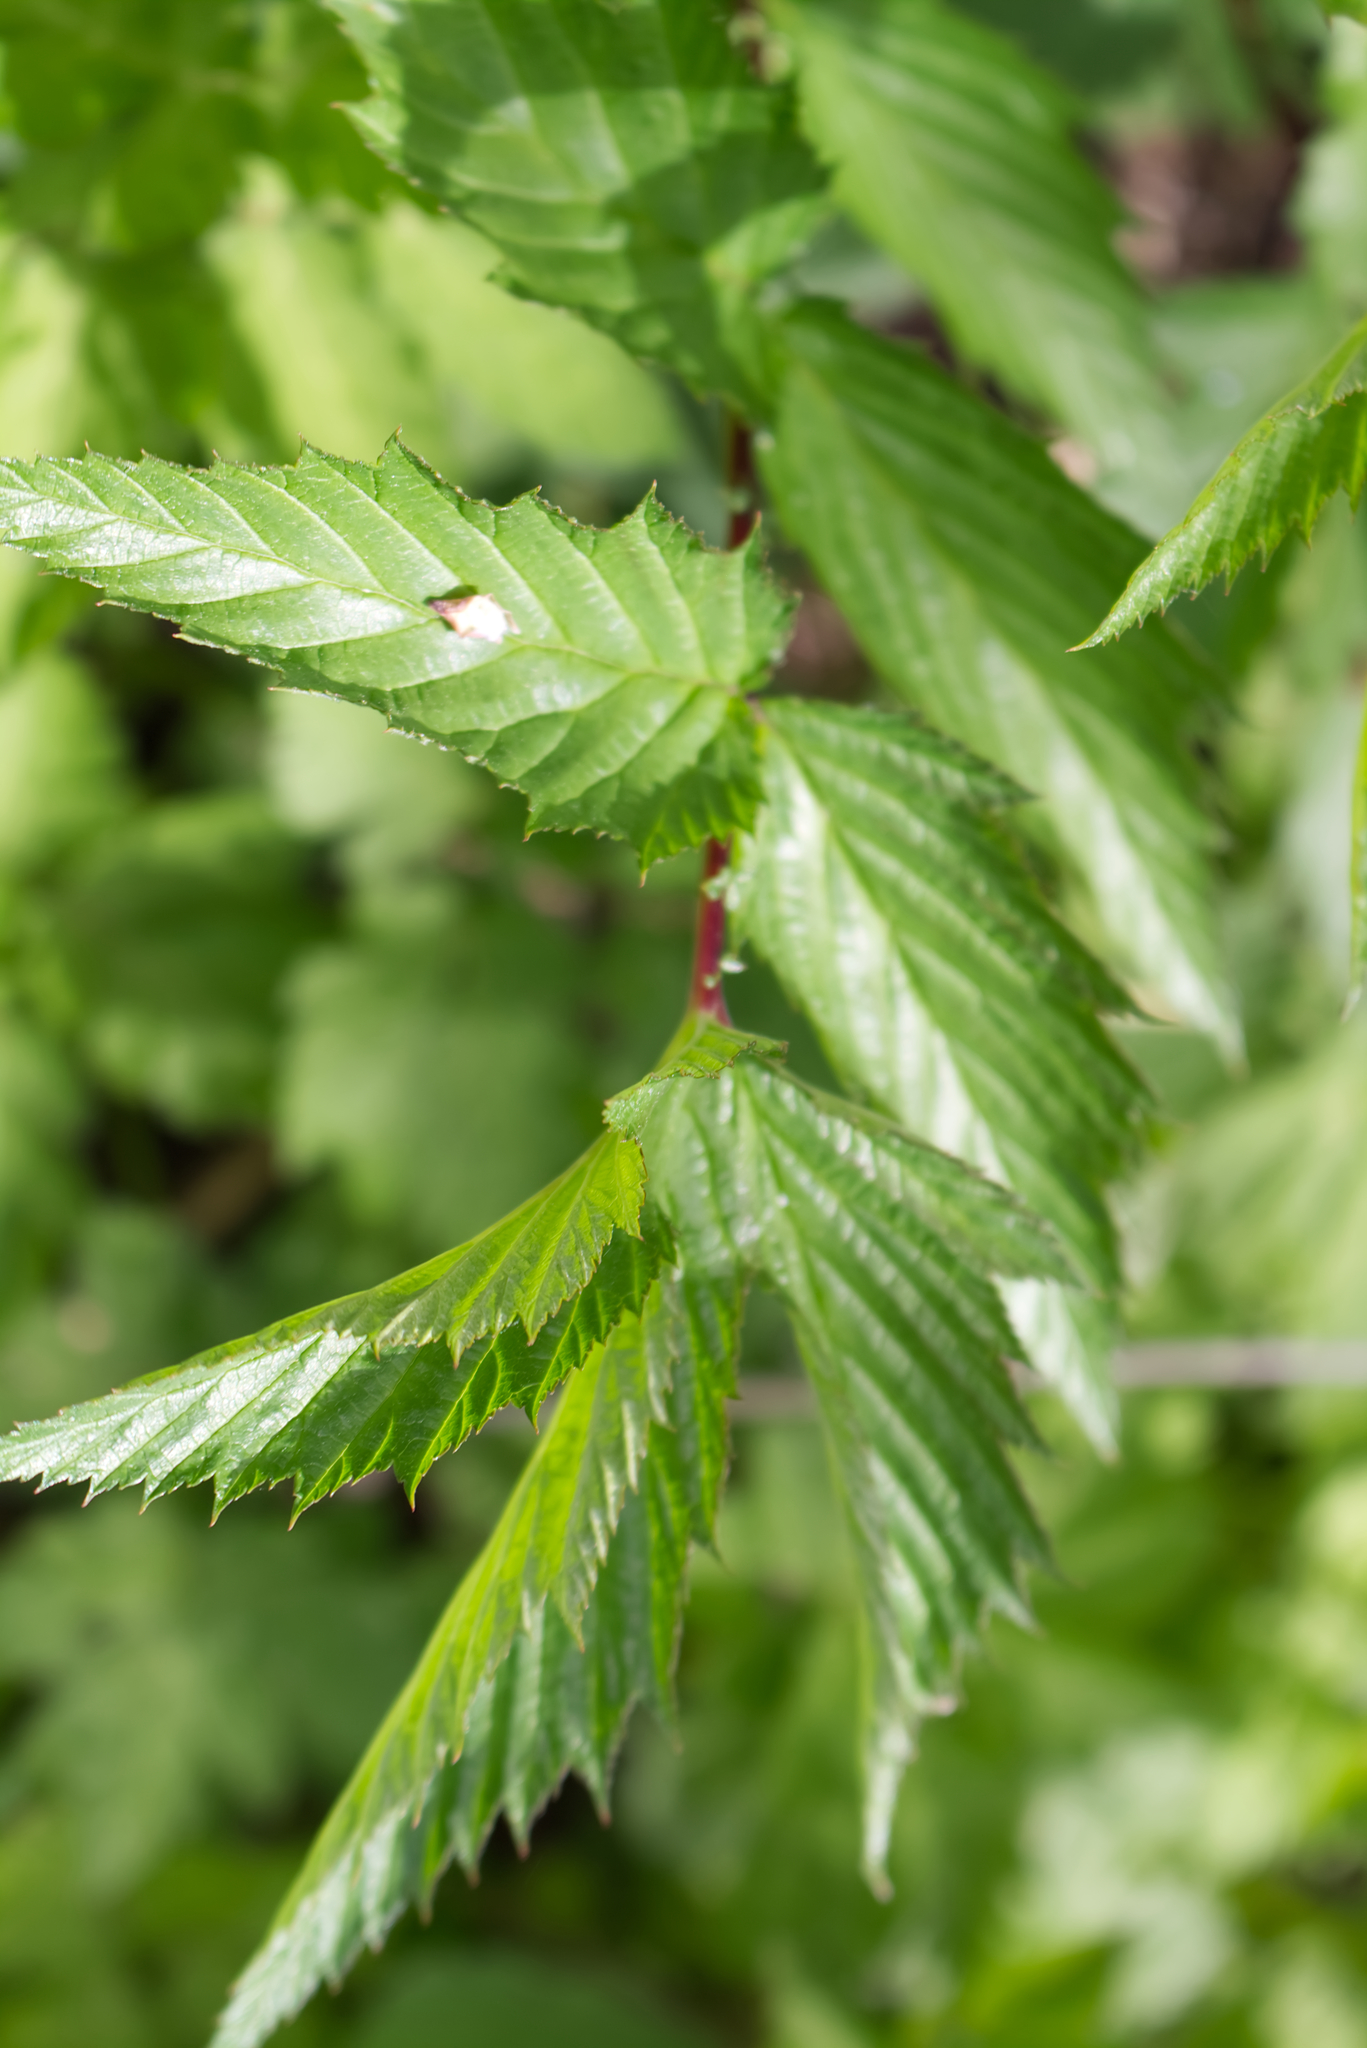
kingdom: Plantae
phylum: Tracheophyta
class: Magnoliopsida
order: Rosales
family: Rosaceae
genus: Filipendula
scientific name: Filipendula ulmaria
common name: Meadowsweet
